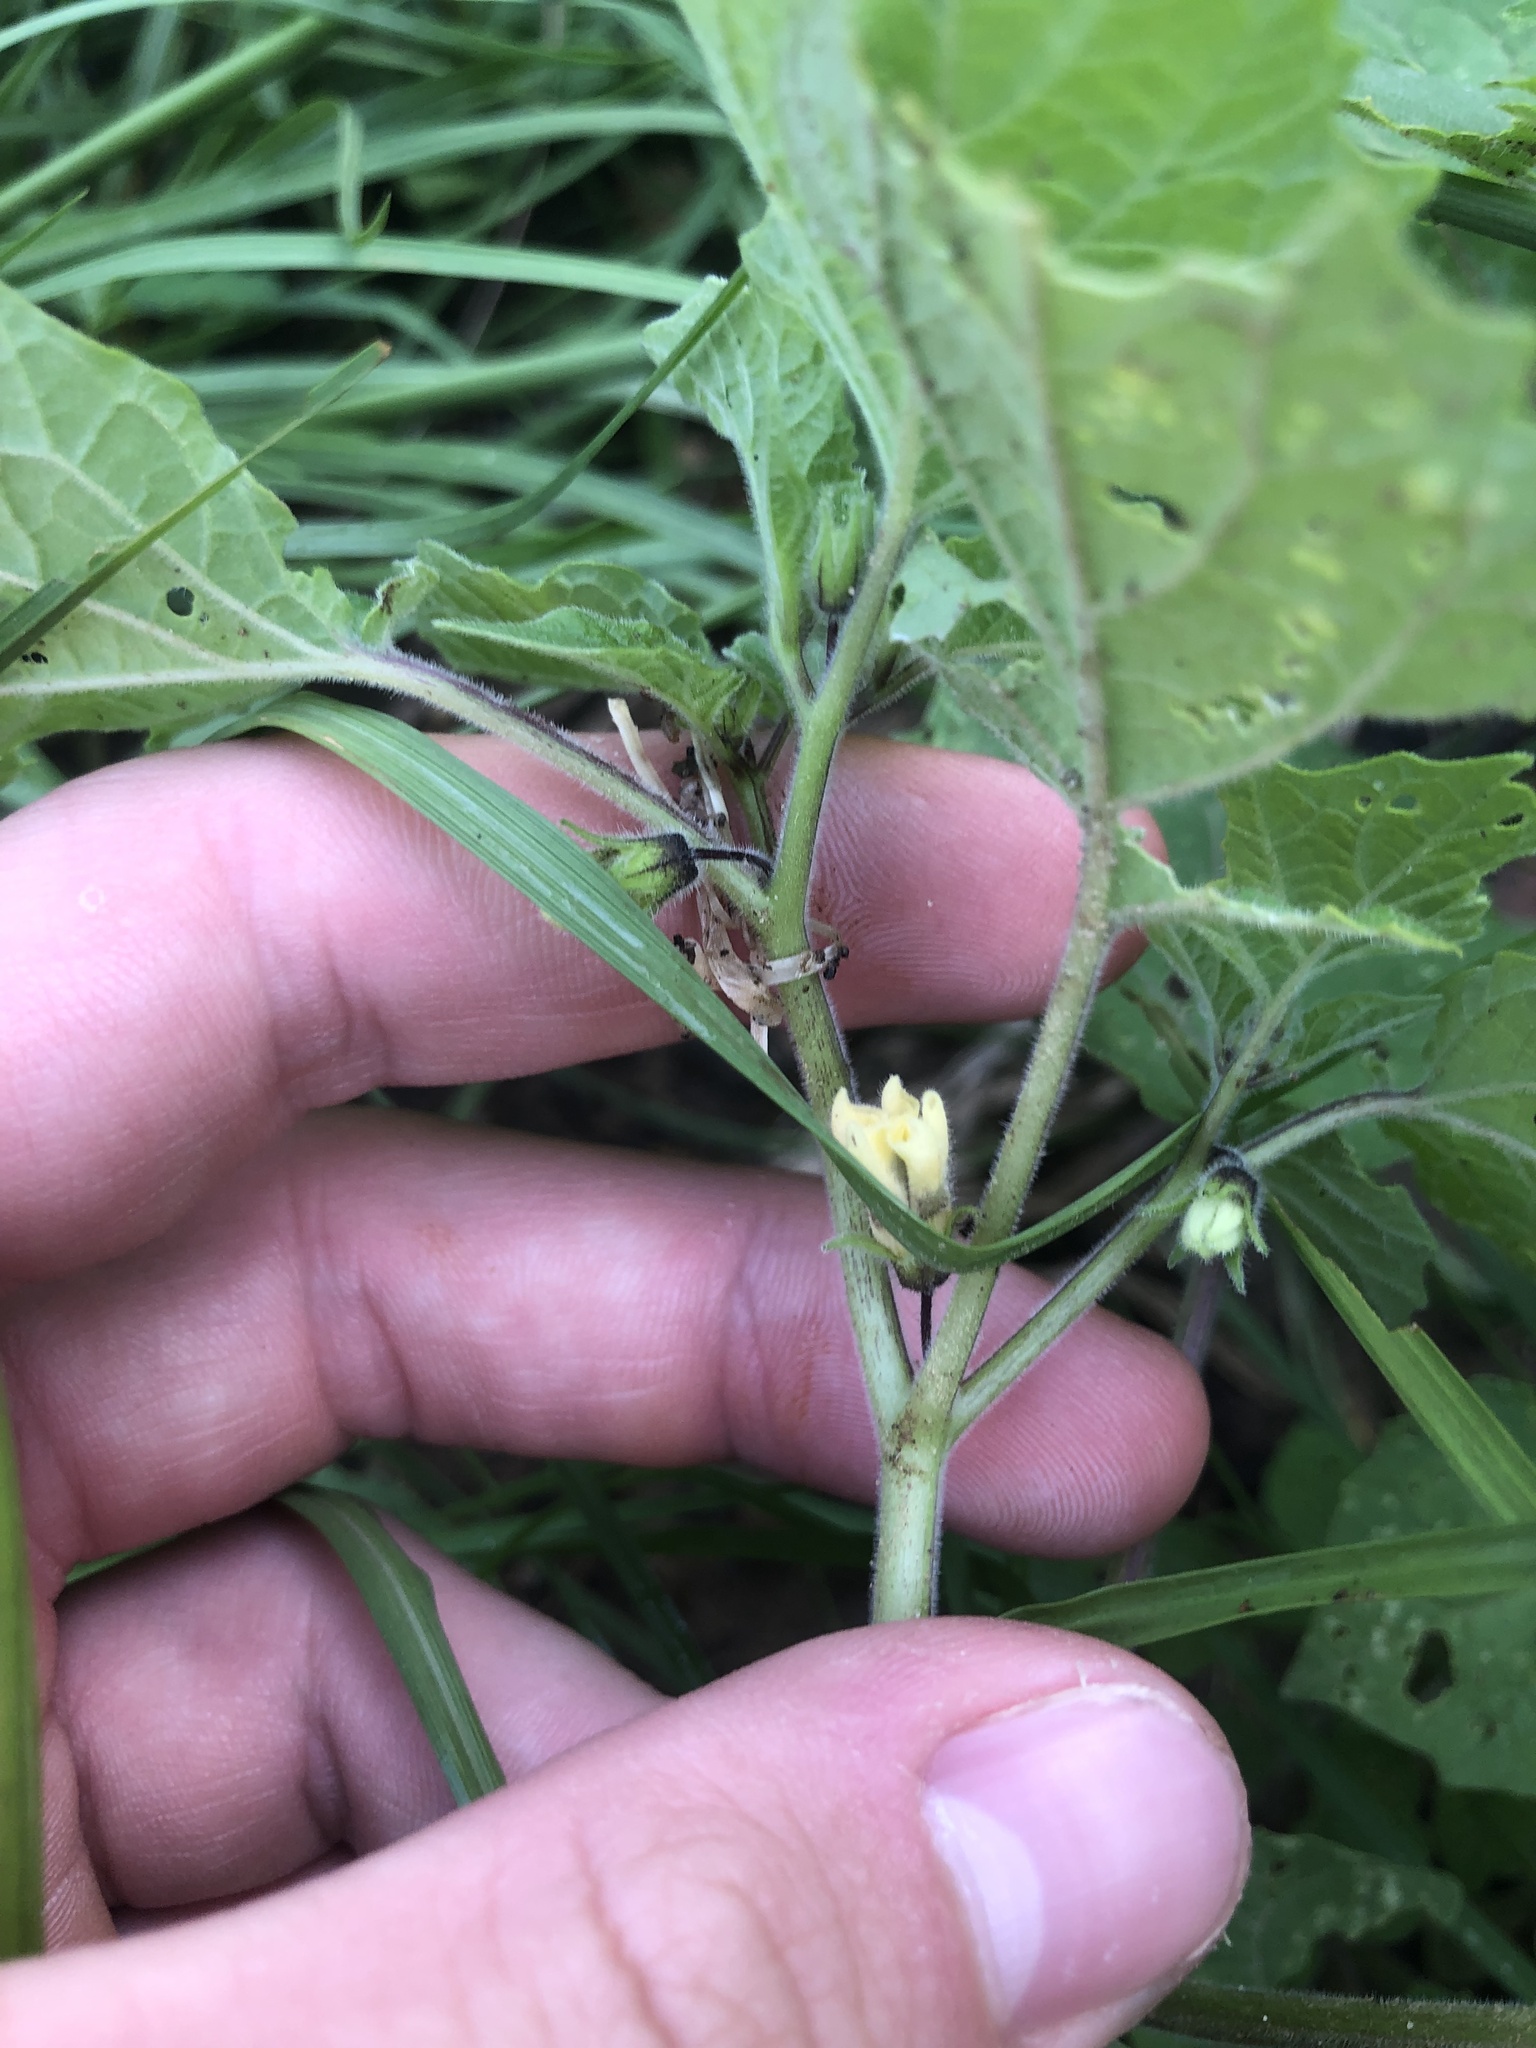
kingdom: Plantae
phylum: Tracheophyta
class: Magnoliopsida
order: Solanales
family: Solanaceae
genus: Physalis
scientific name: Physalis pubescens
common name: Downy ground-cherry
